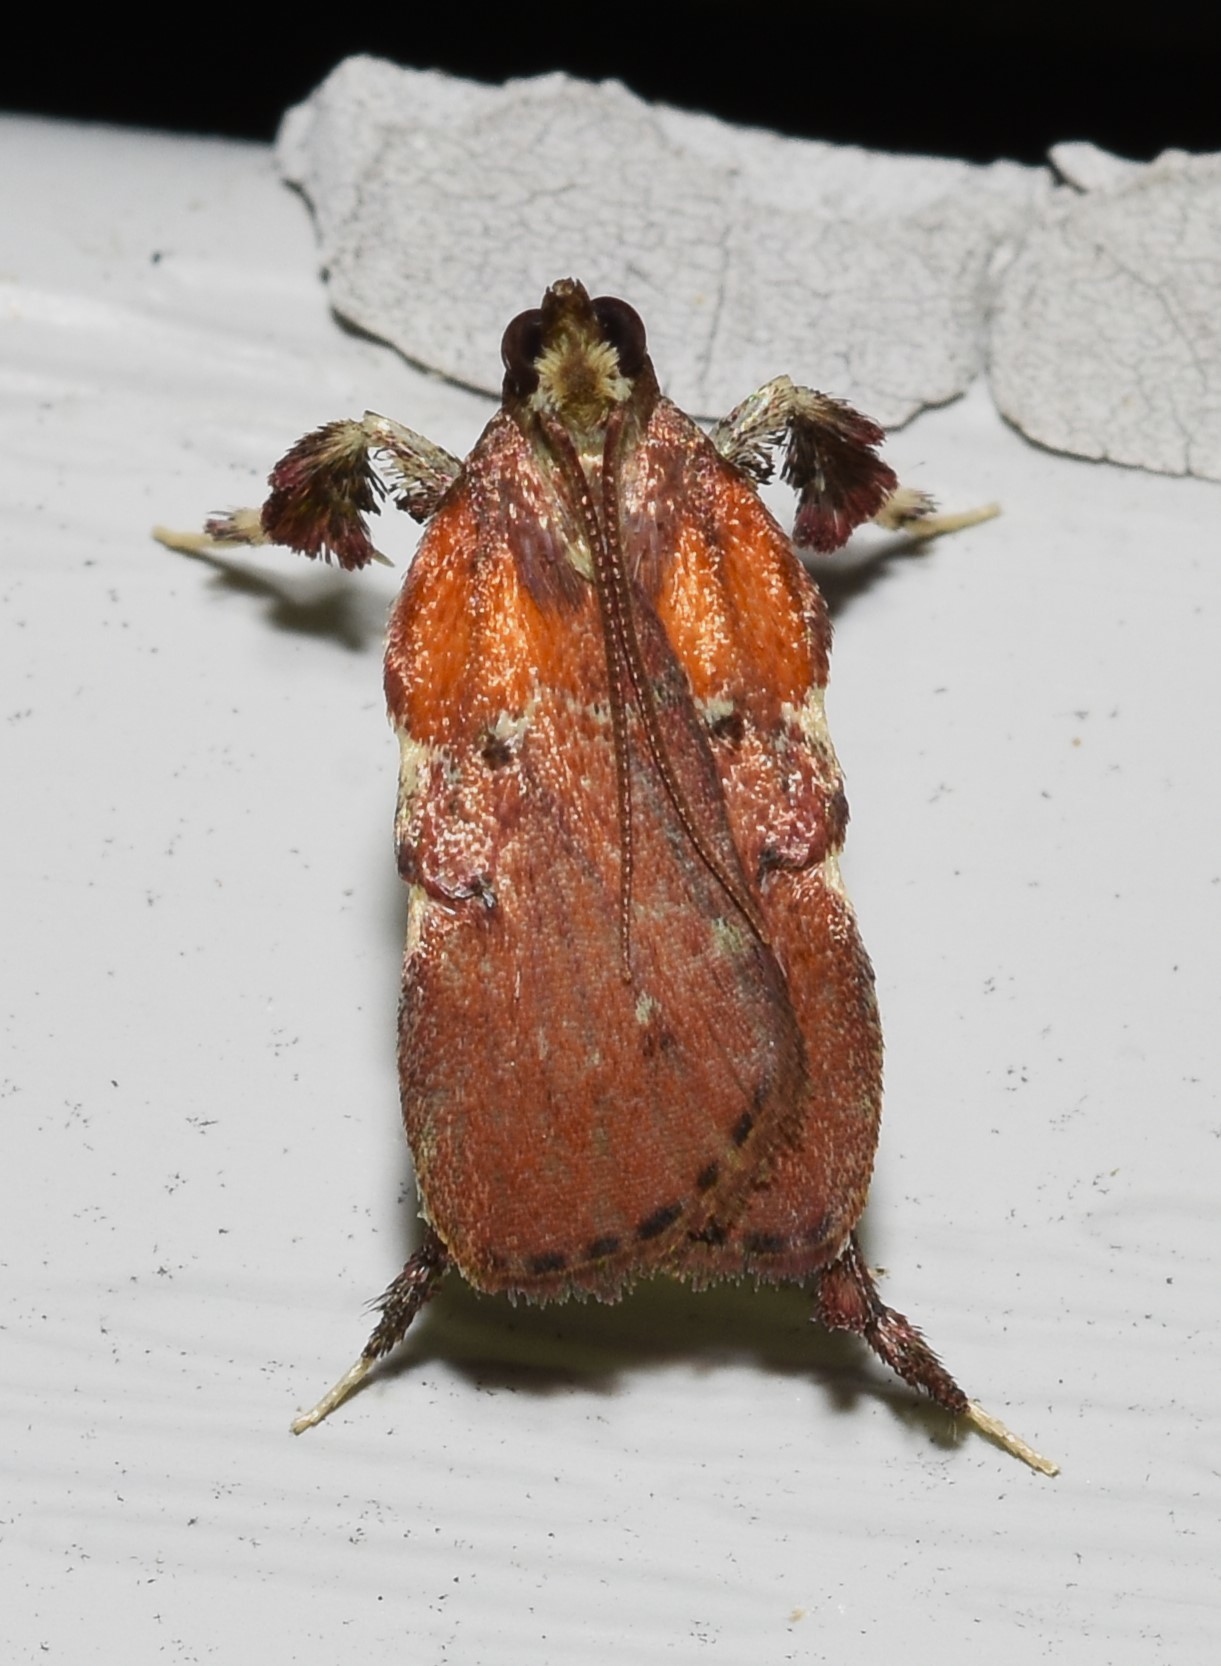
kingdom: Animalia
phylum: Arthropoda
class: Insecta
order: Lepidoptera
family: Pyralidae
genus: Galasa
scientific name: Galasa nigrinodis
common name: Boxwood leaftier moth
